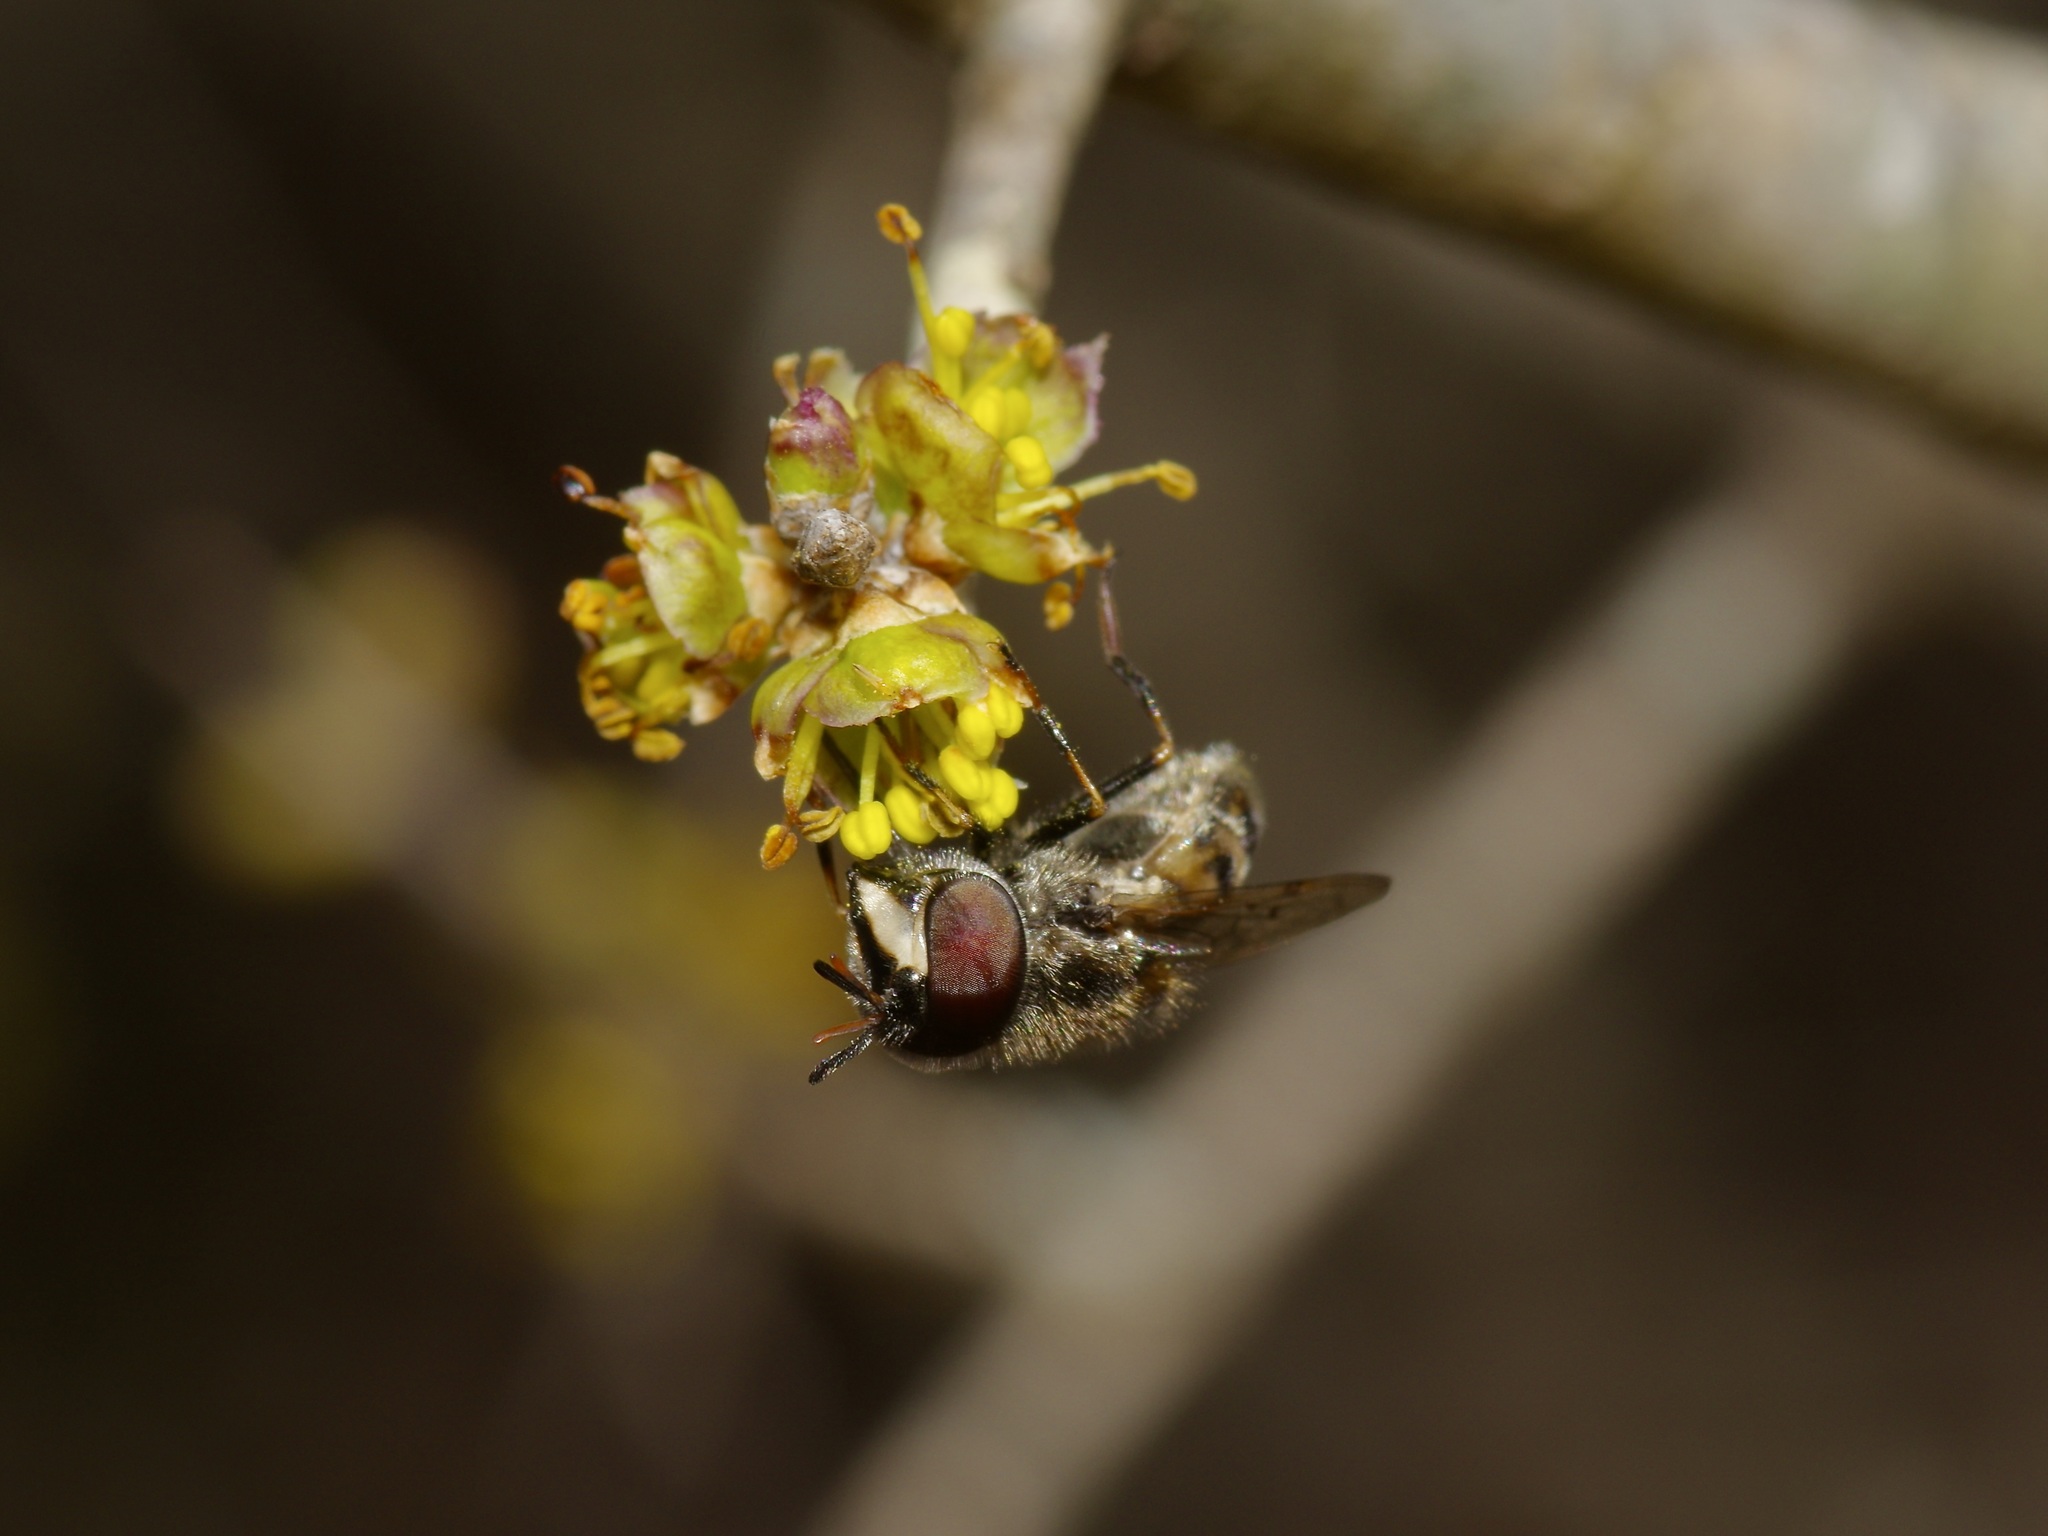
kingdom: Animalia
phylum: Arthropoda
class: Insecta
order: Diptera
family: Syrphidae
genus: Copestylum
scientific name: Copestylum marginatum
